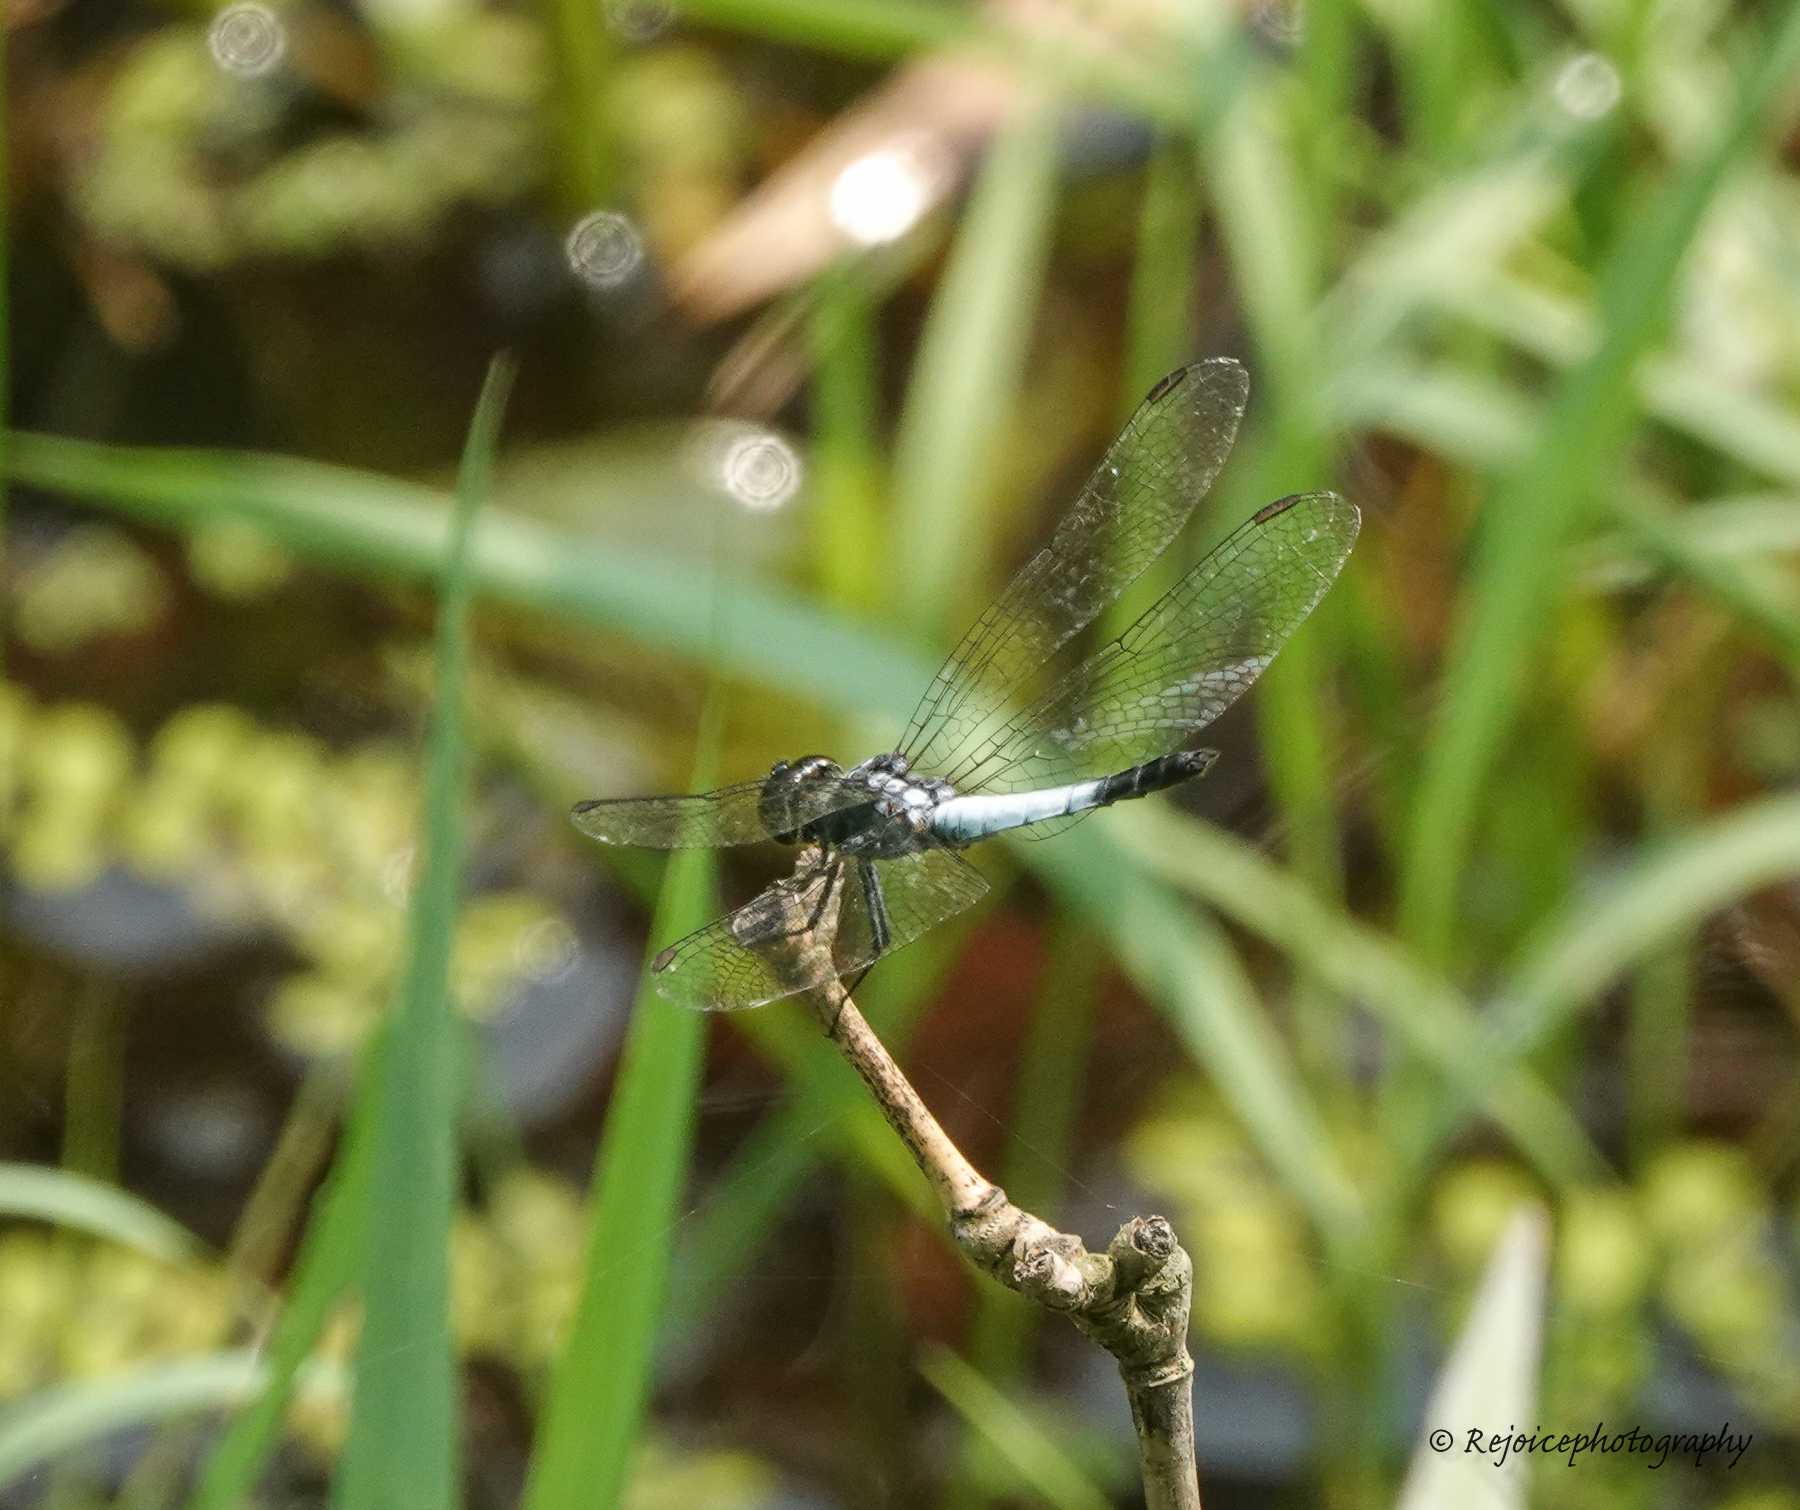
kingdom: Animalia
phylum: Arthropoda
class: Insecta
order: Odonata
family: Libellulidae
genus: Brachydiplax
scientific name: Brachydiplax farinosa
